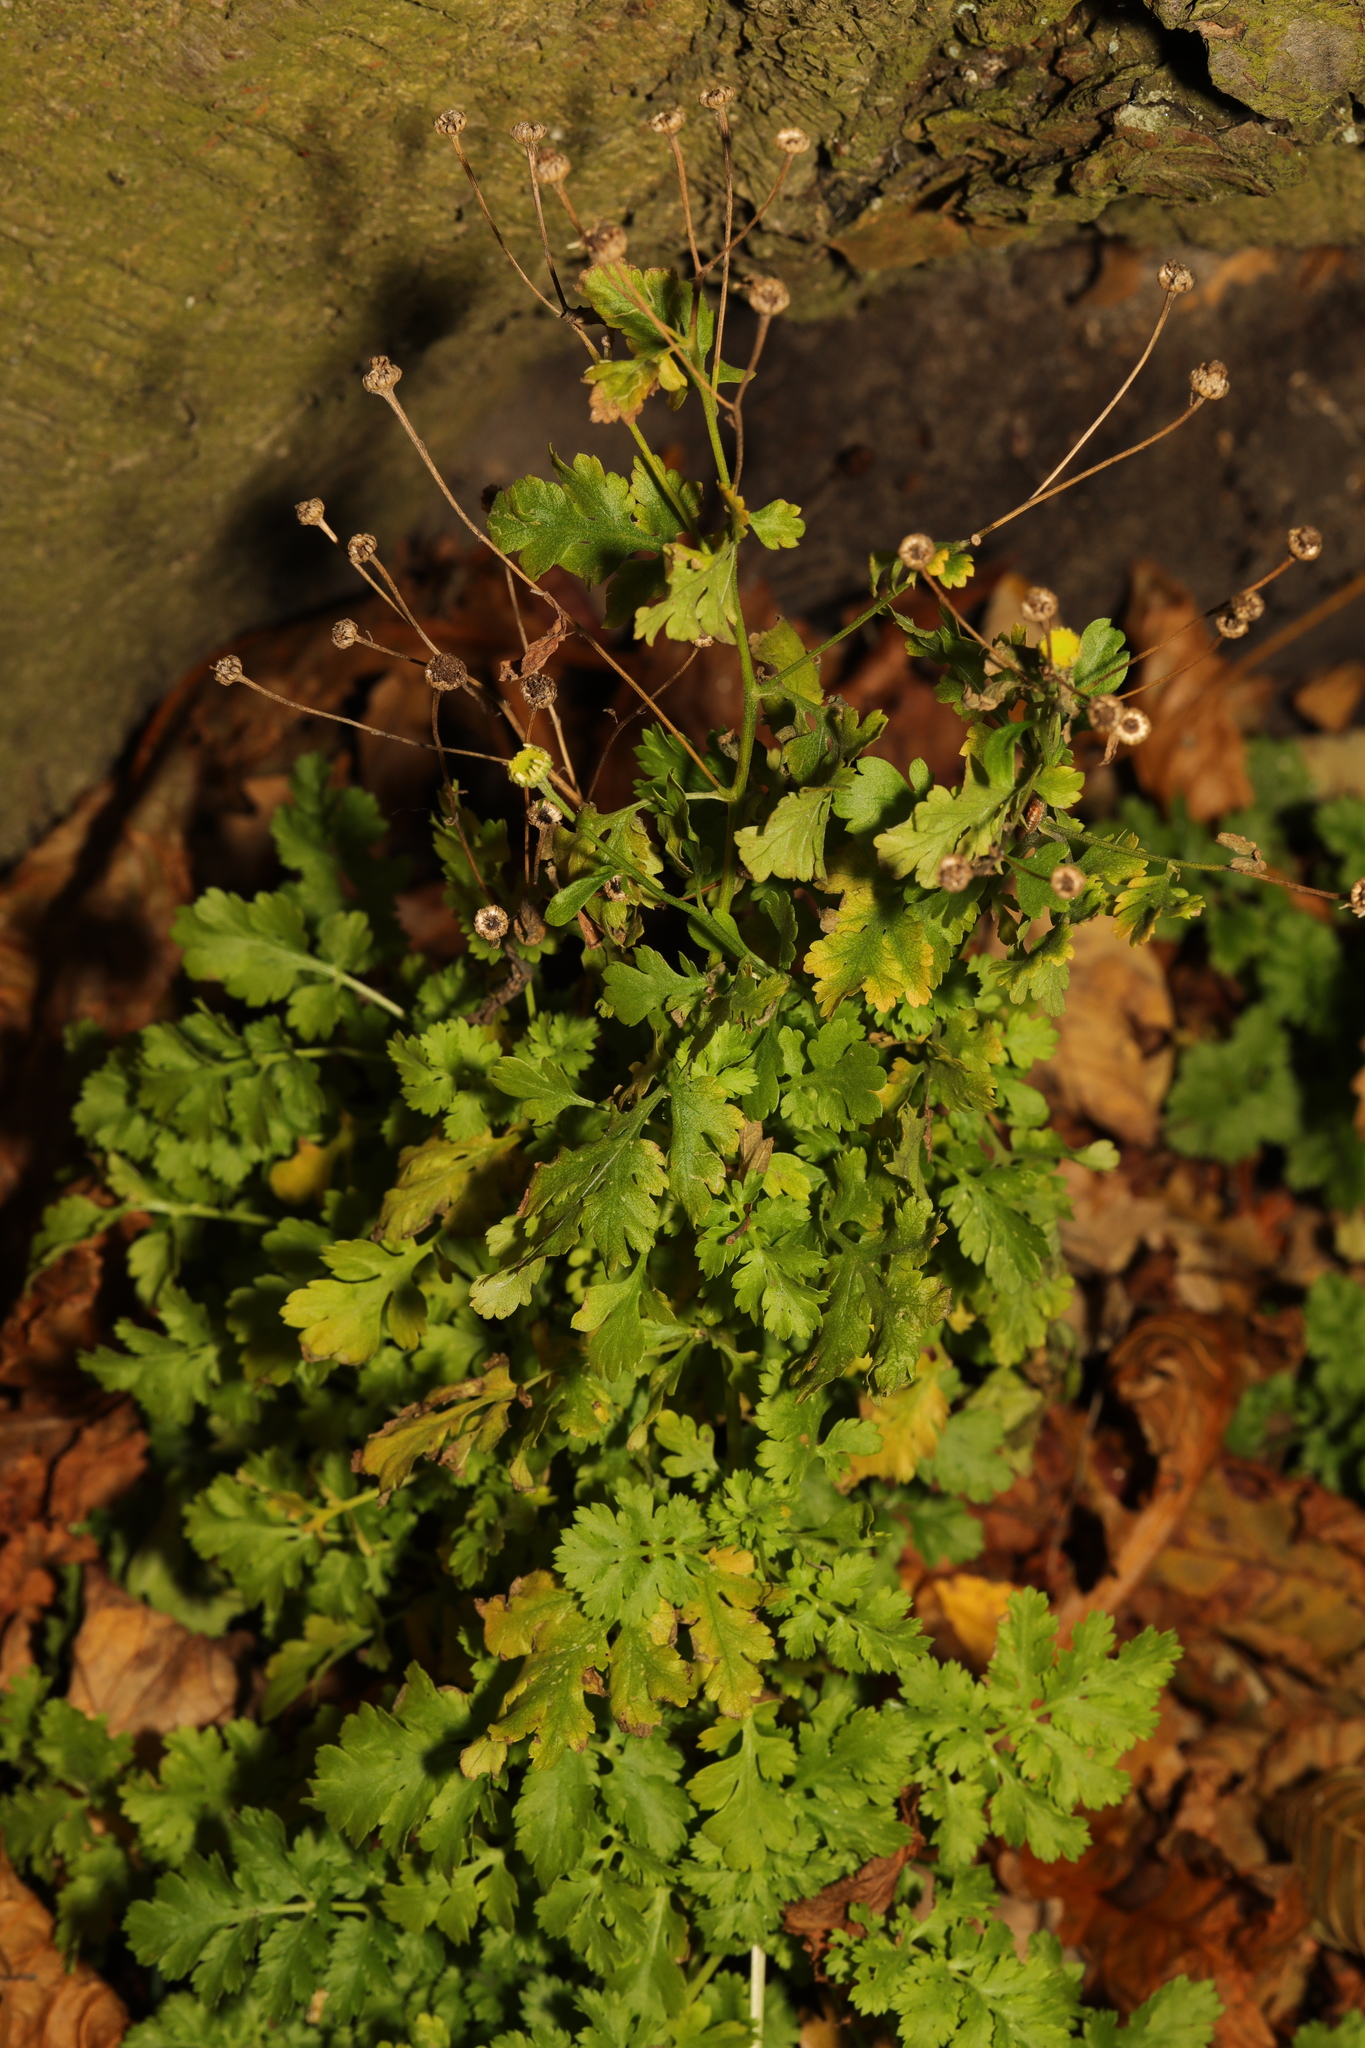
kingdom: Plantae
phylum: Tracheophyta
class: Magnoliopsida
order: Asterales
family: Asteraceae
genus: Tanacetum
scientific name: Tanacetum parthenium
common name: Feverfew
